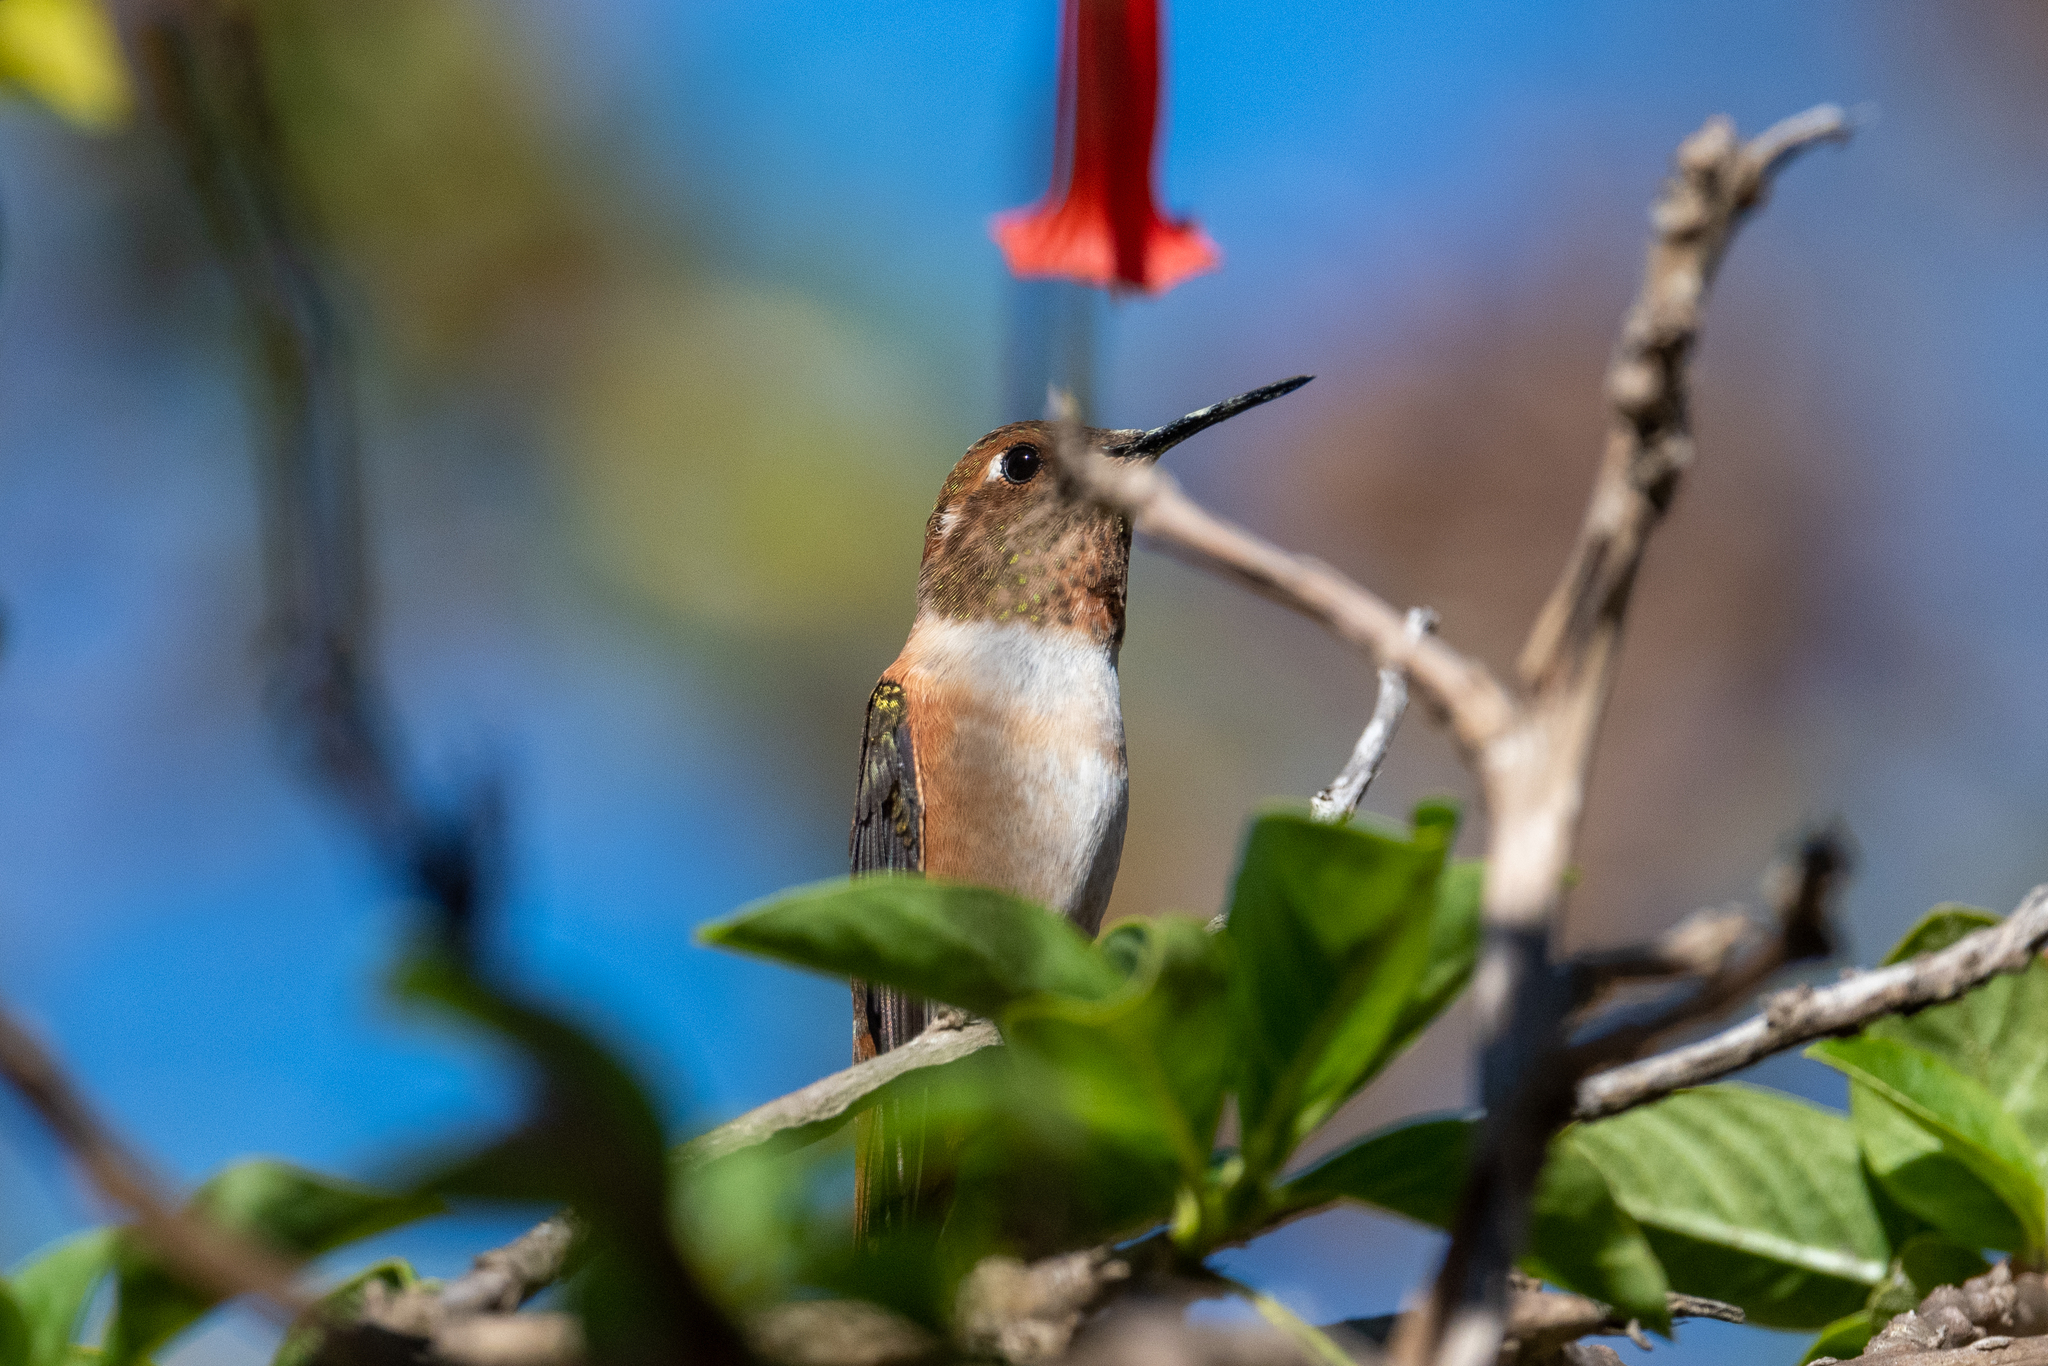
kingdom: Animalia
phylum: Chordata
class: Aves
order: Apodiformes
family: Trochilidae
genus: Selasphorus
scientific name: Selasphorus
